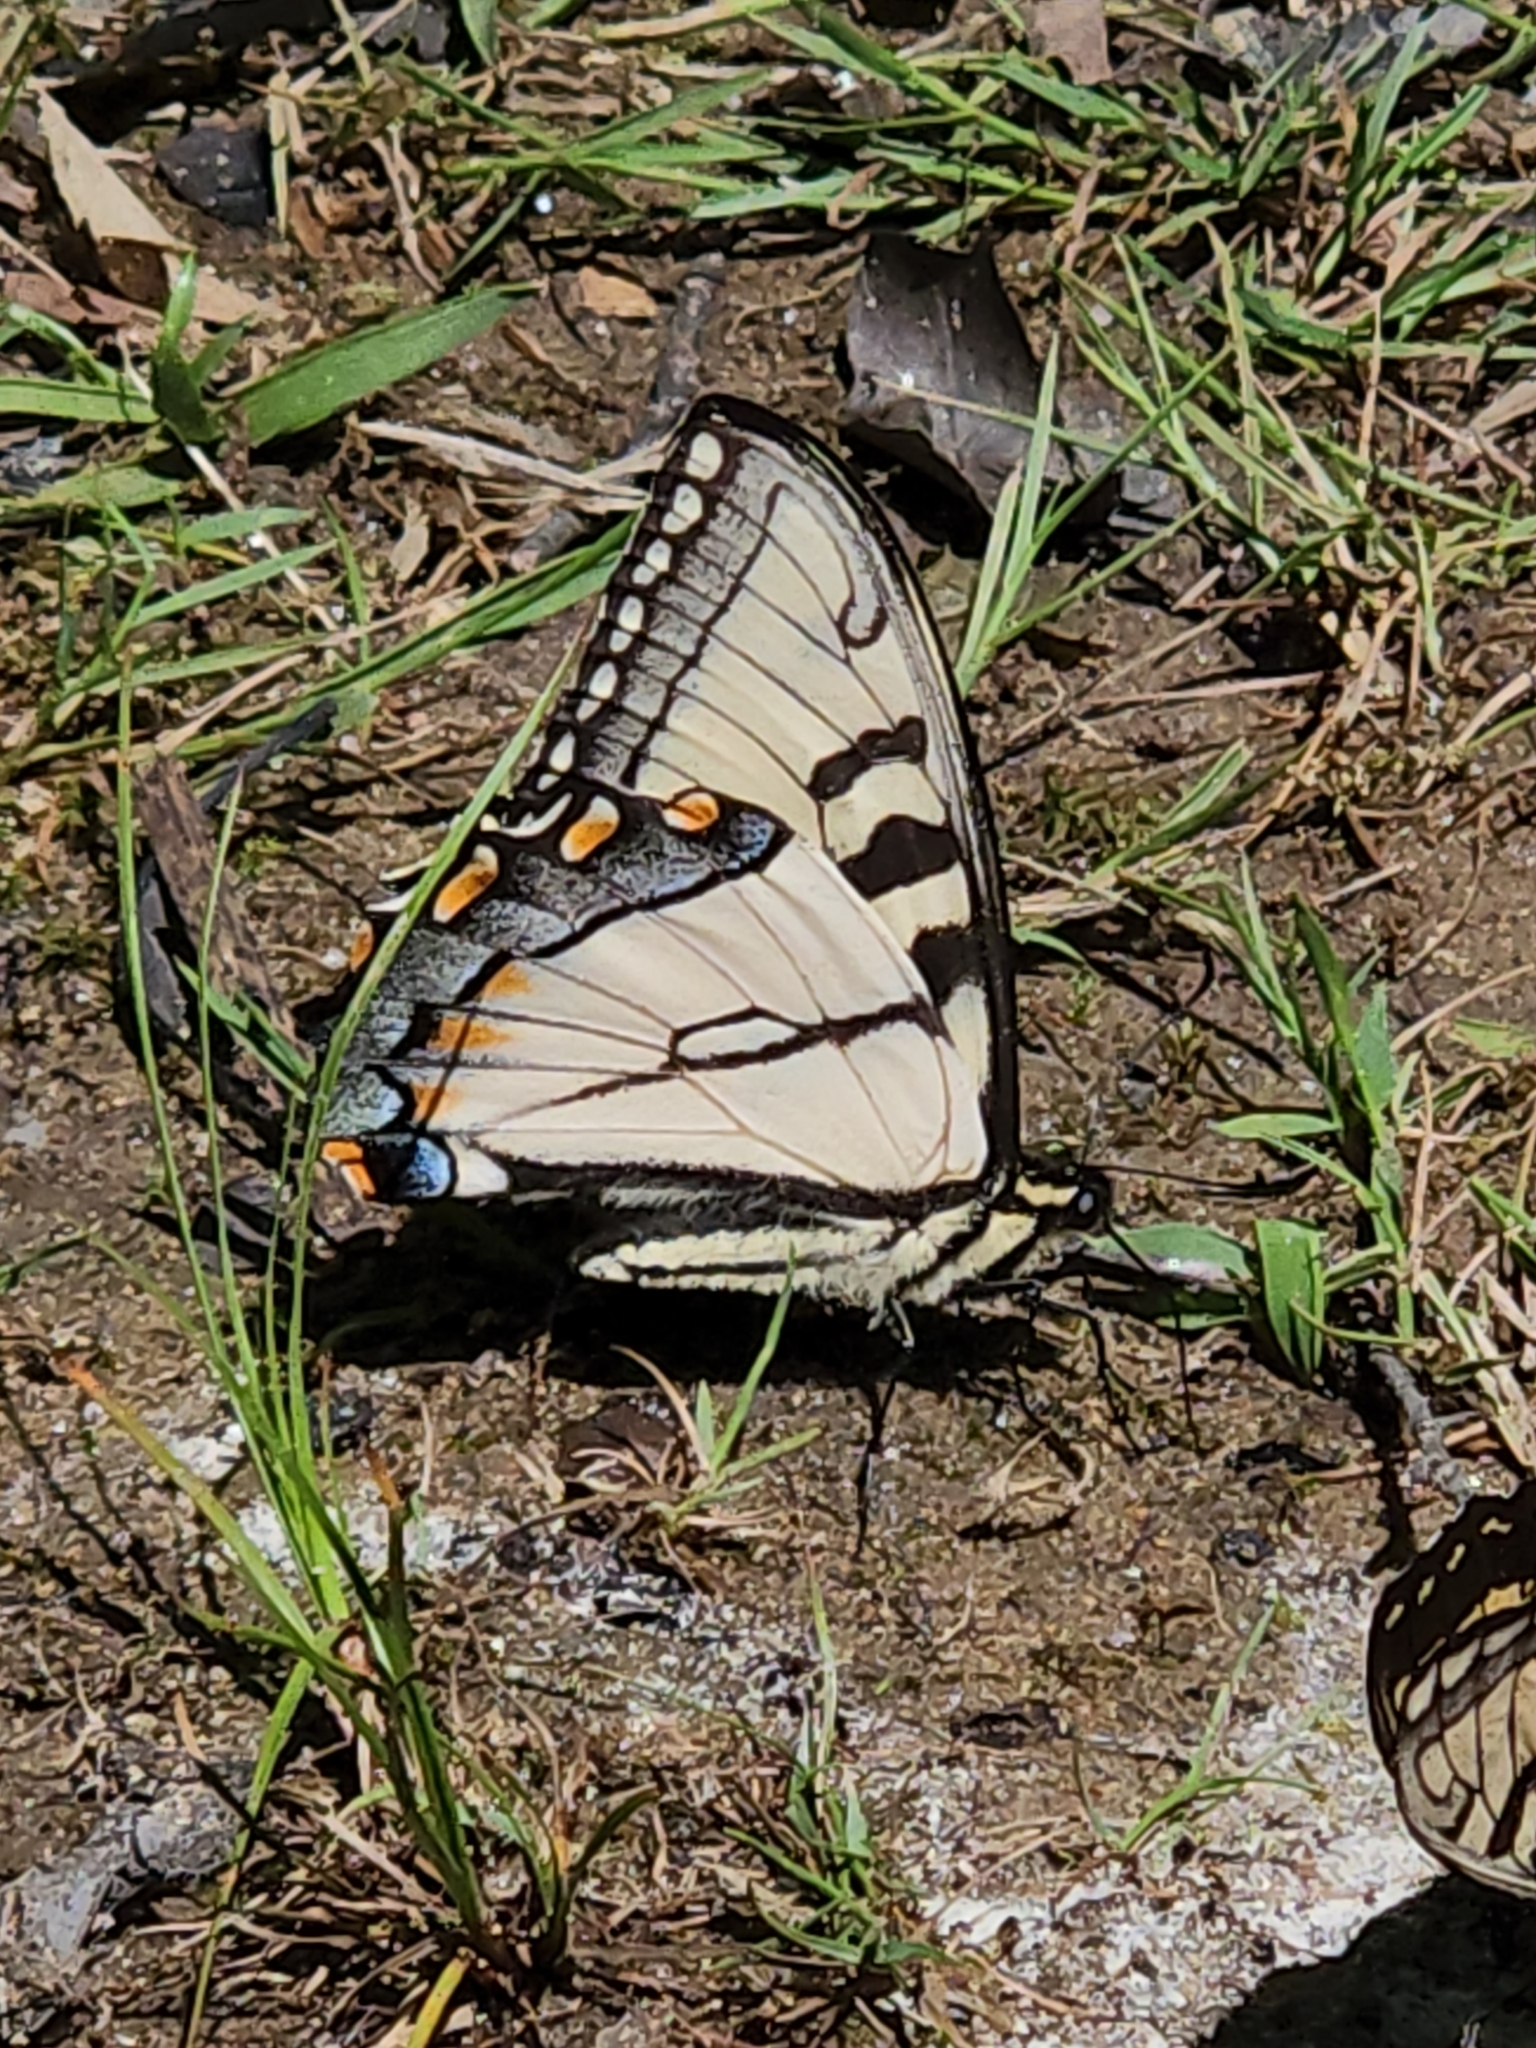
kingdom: Animalia
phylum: Arthropoda
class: Insecta
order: Lepidoptera
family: Papilionidae
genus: Papilio
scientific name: Papilio appalachiensis
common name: Appalachian tiger swallowtail
